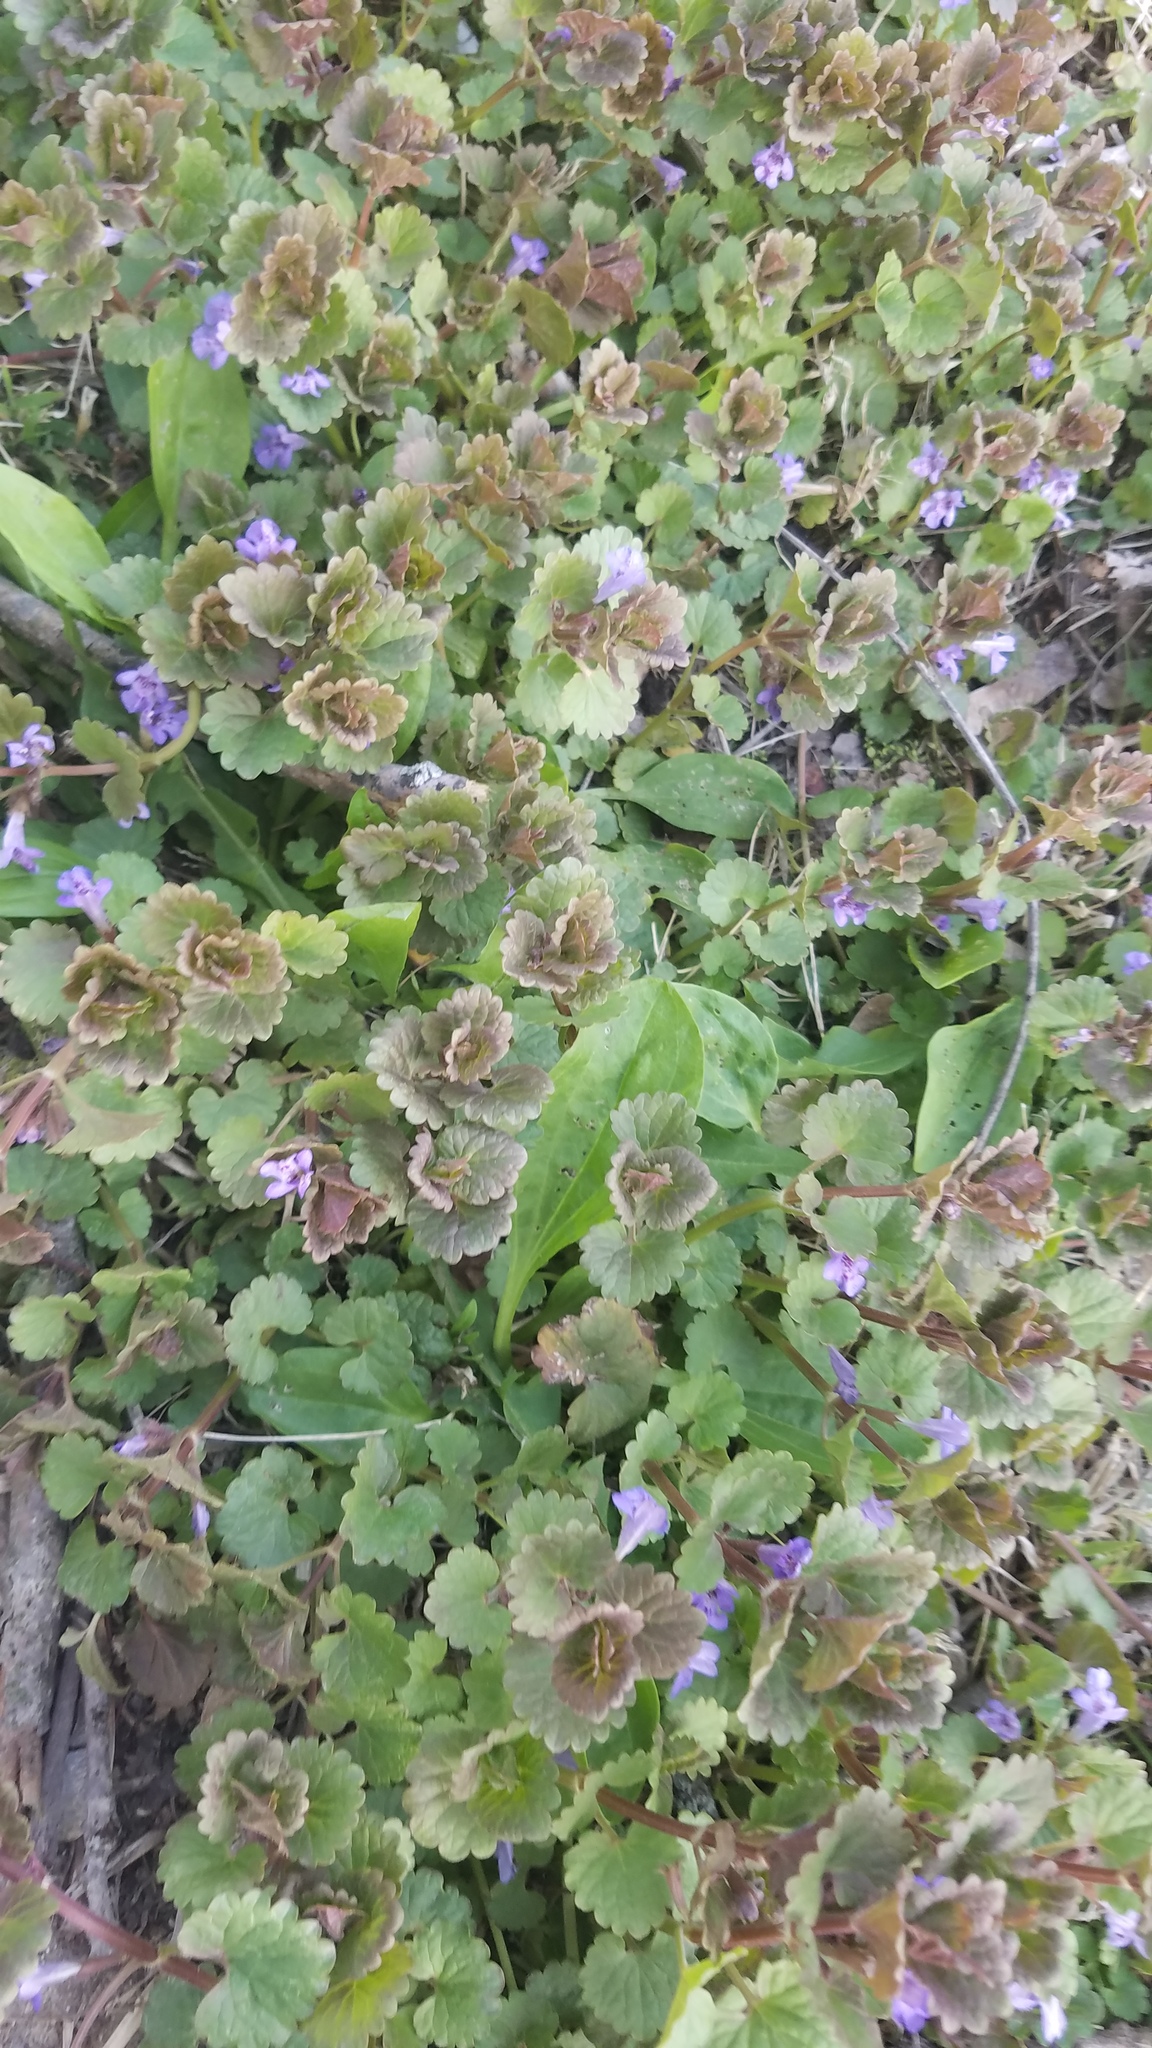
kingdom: Plantae
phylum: Tracheophyta
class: Magnoliopsida
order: Lamiales
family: Lamiaceae
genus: Glechoma
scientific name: Glechoma hederacea
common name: Ground ivy
